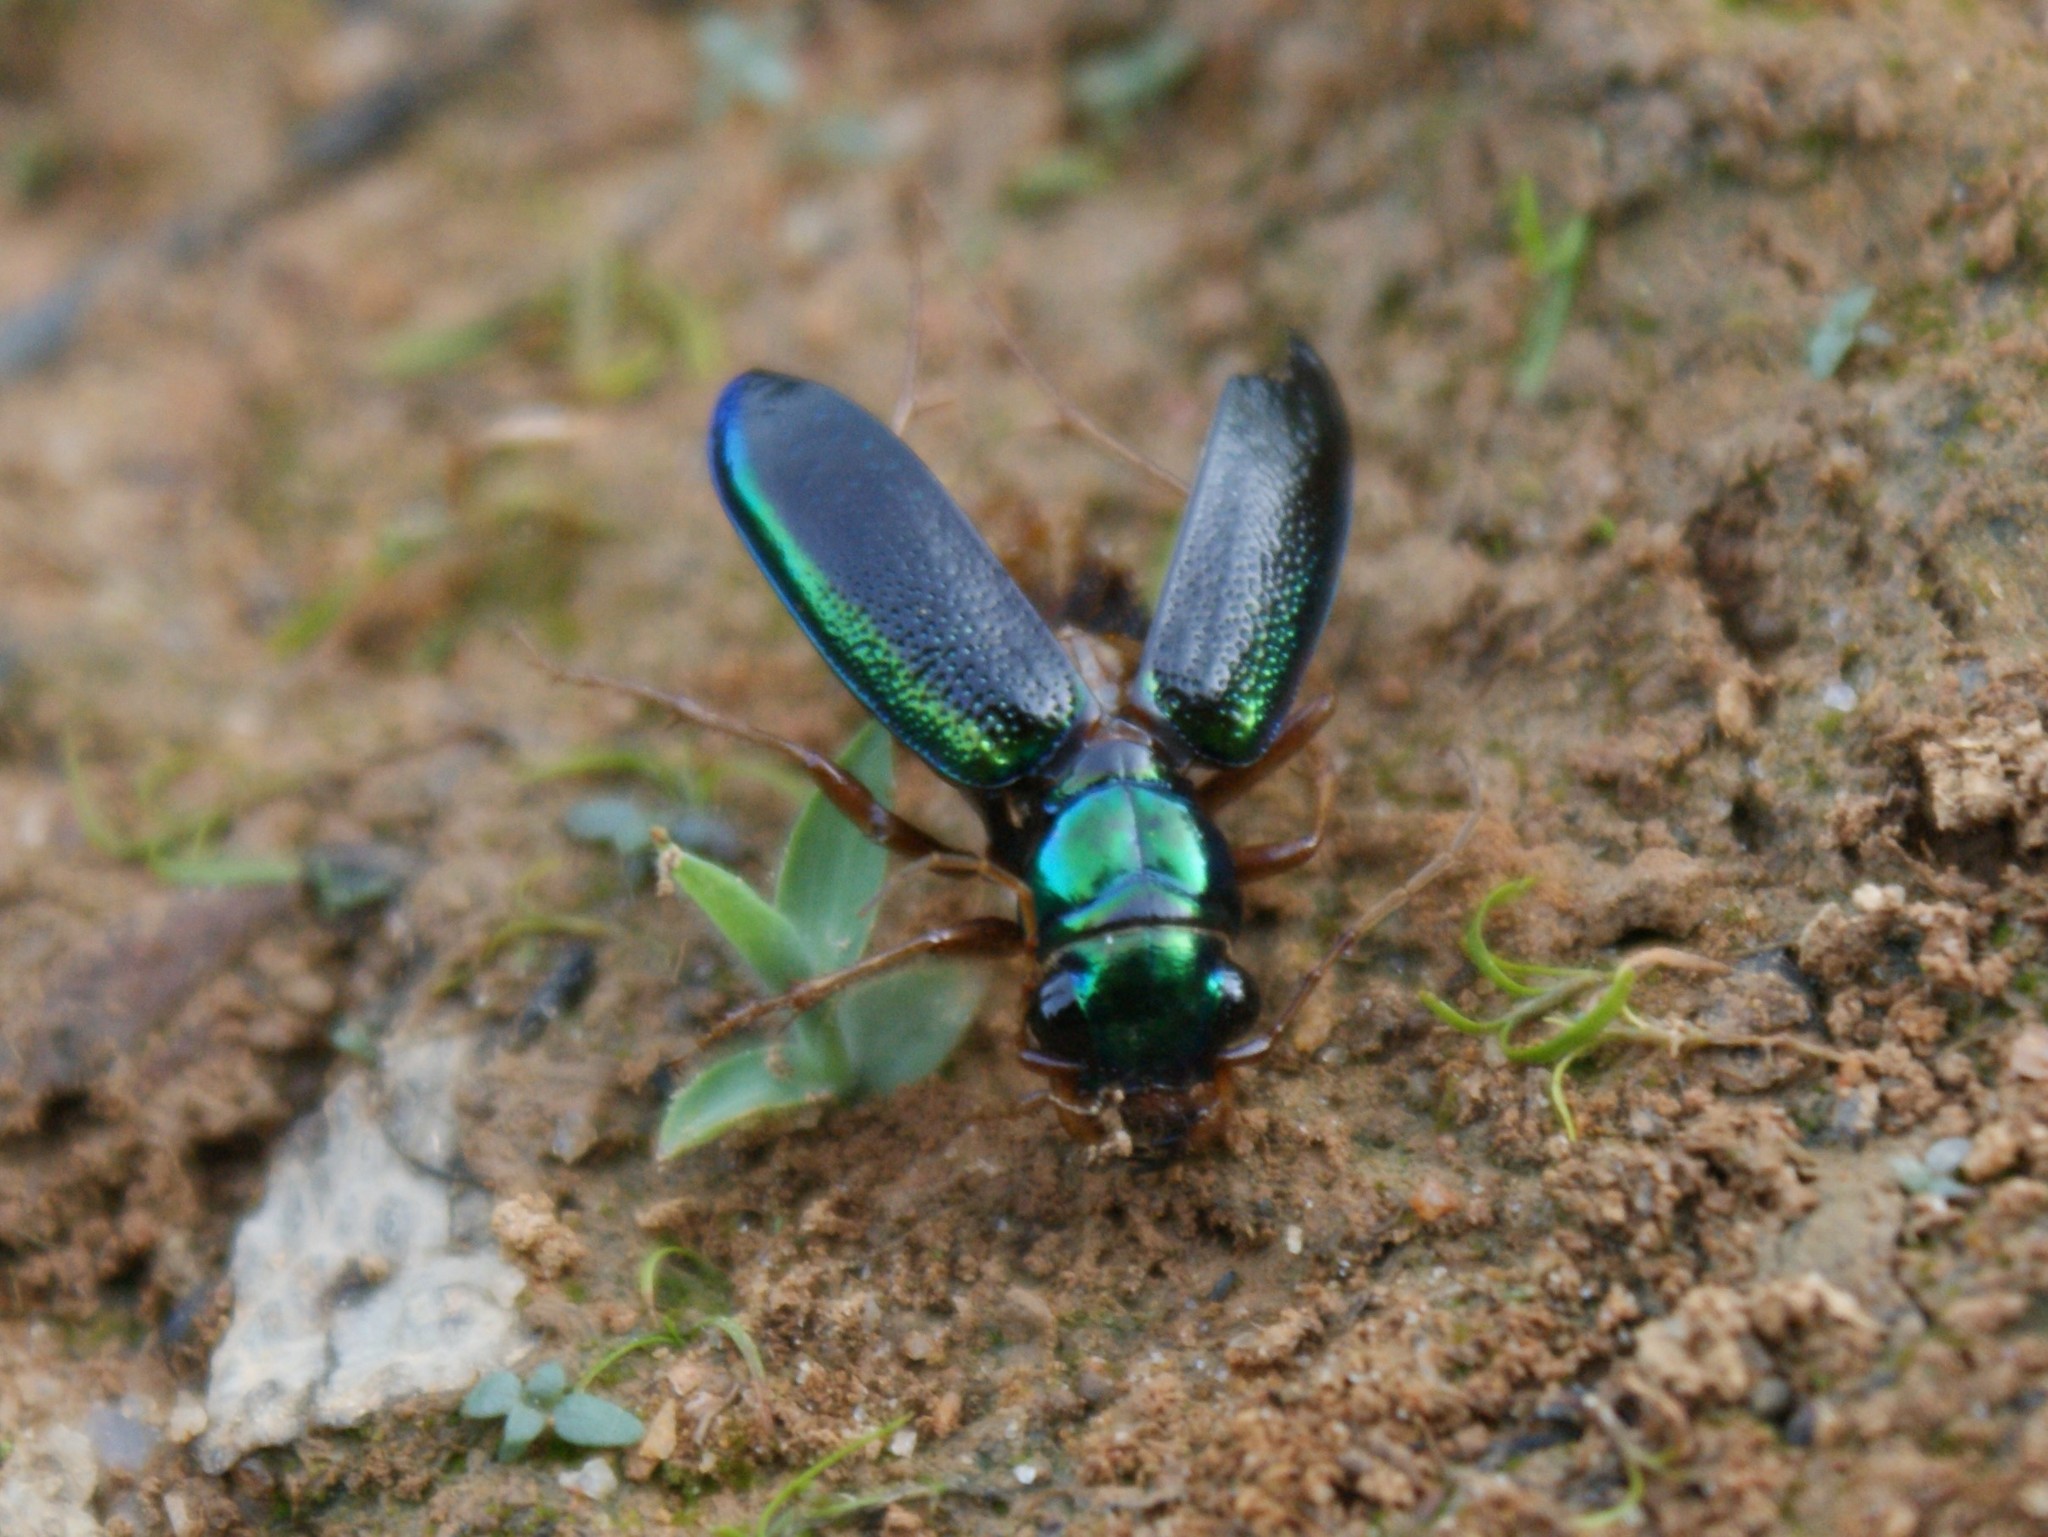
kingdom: Animalia
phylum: Arthropoda
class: Insecta
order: Coleoptera
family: Carabidae
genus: Tetracha
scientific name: Tetracha virginica
